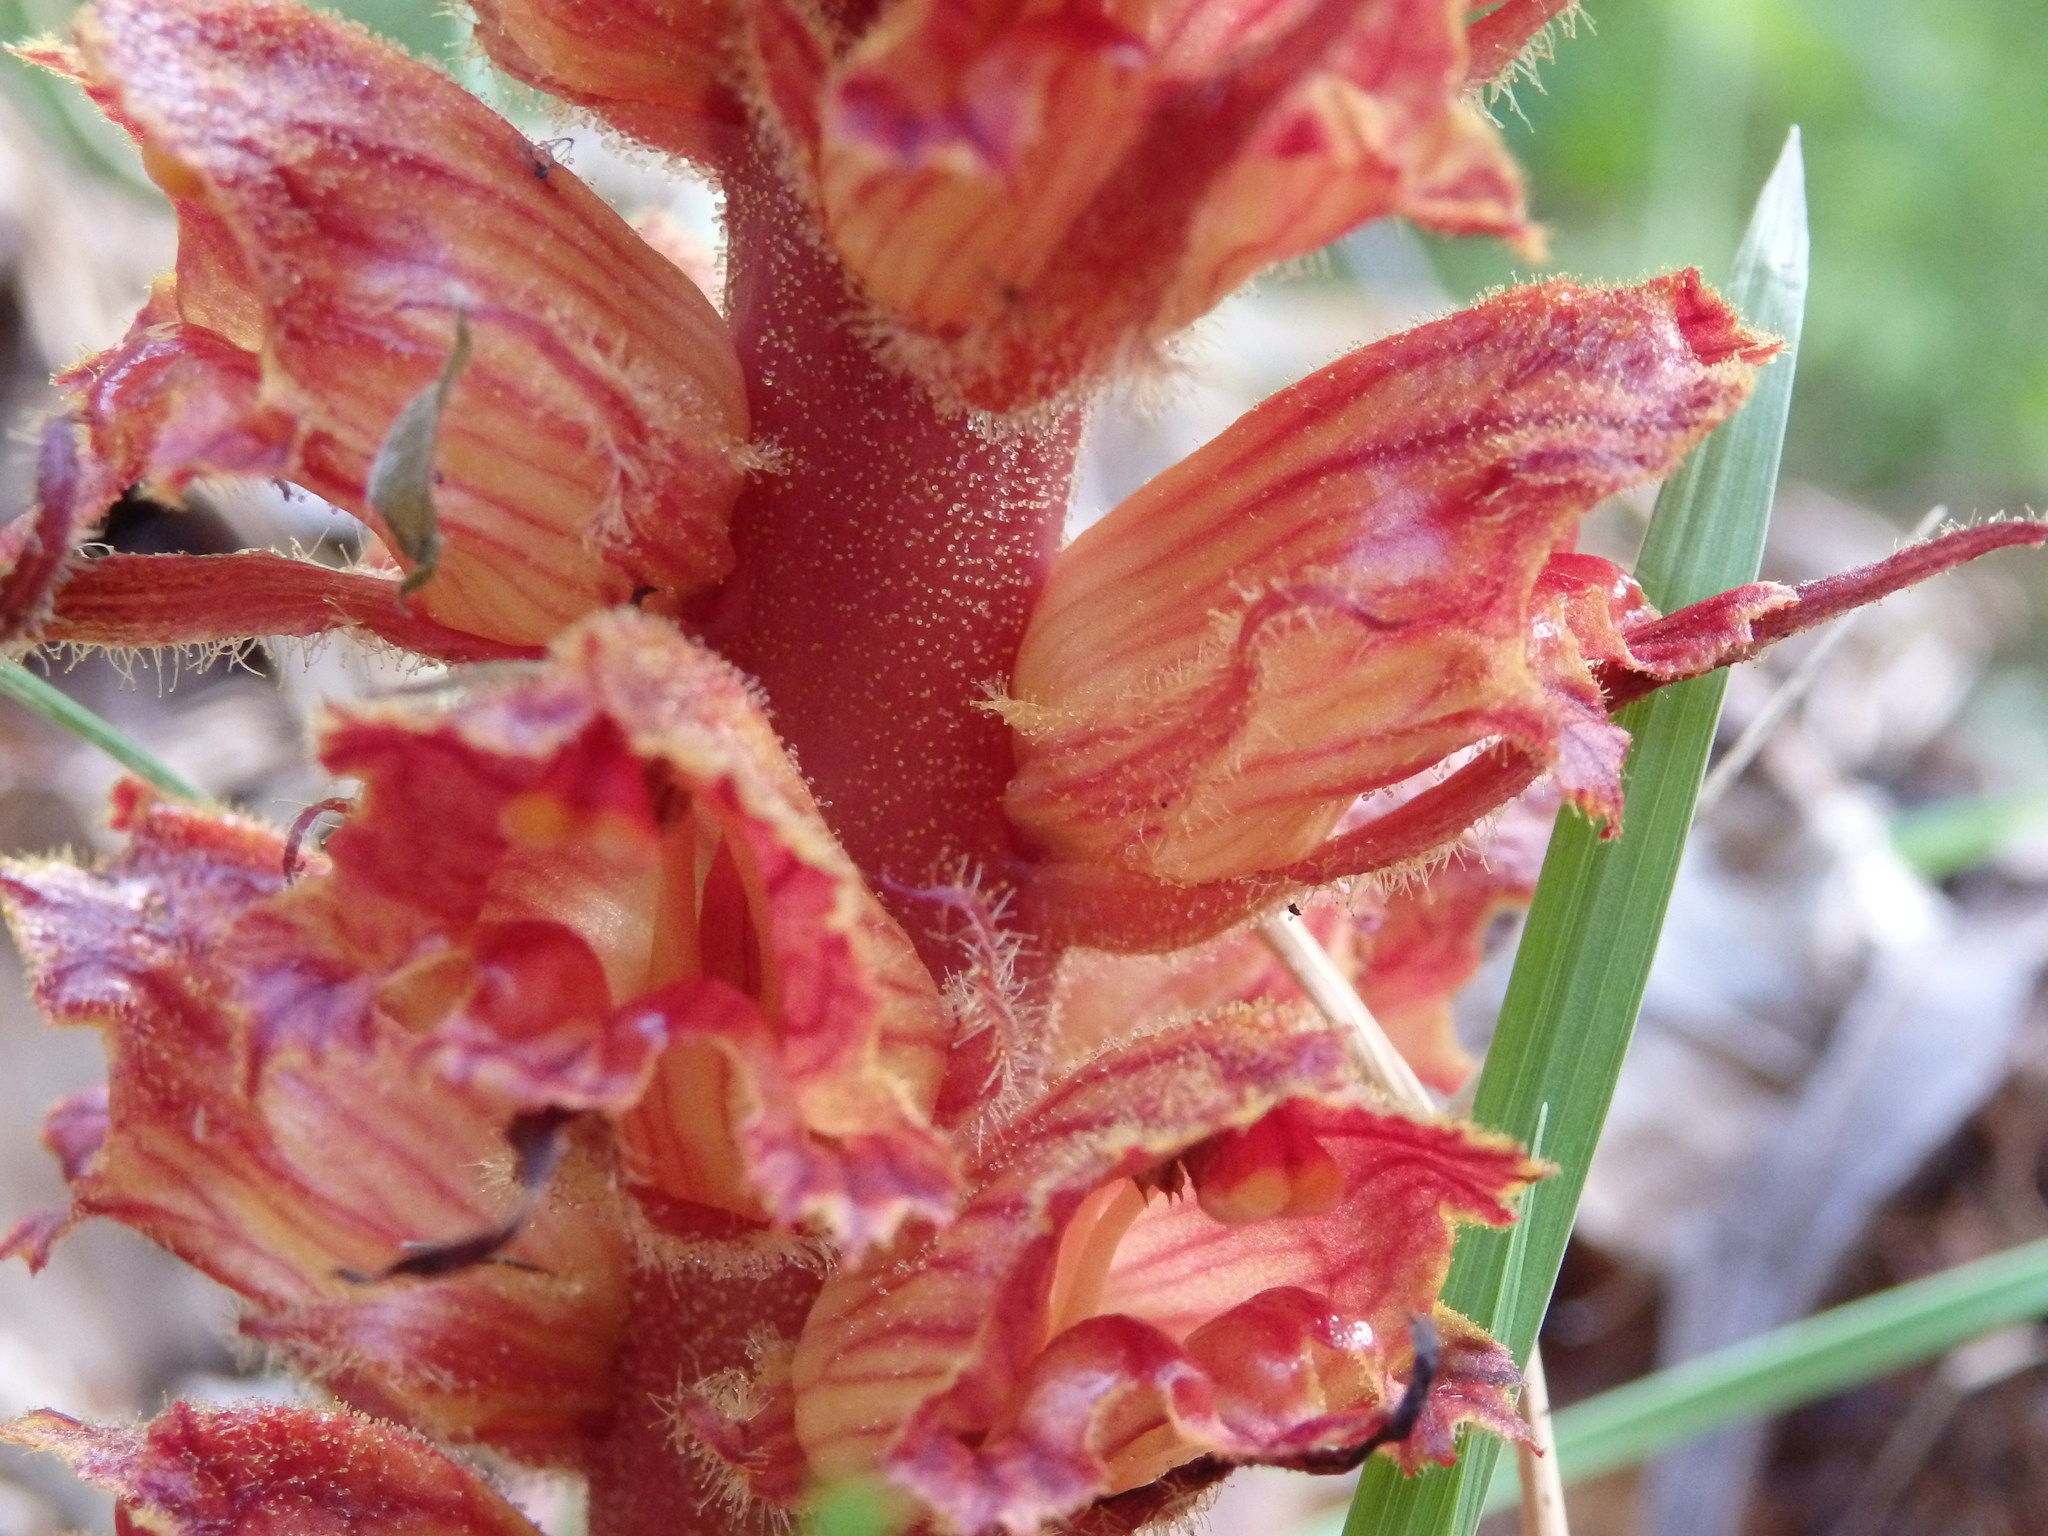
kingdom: Plantae
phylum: Tracheophyta
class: Magnoliopsida
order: Lamiales
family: Orobanchaceae
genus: Orobanche
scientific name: Orobanche gracilis
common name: Slender broomrape
